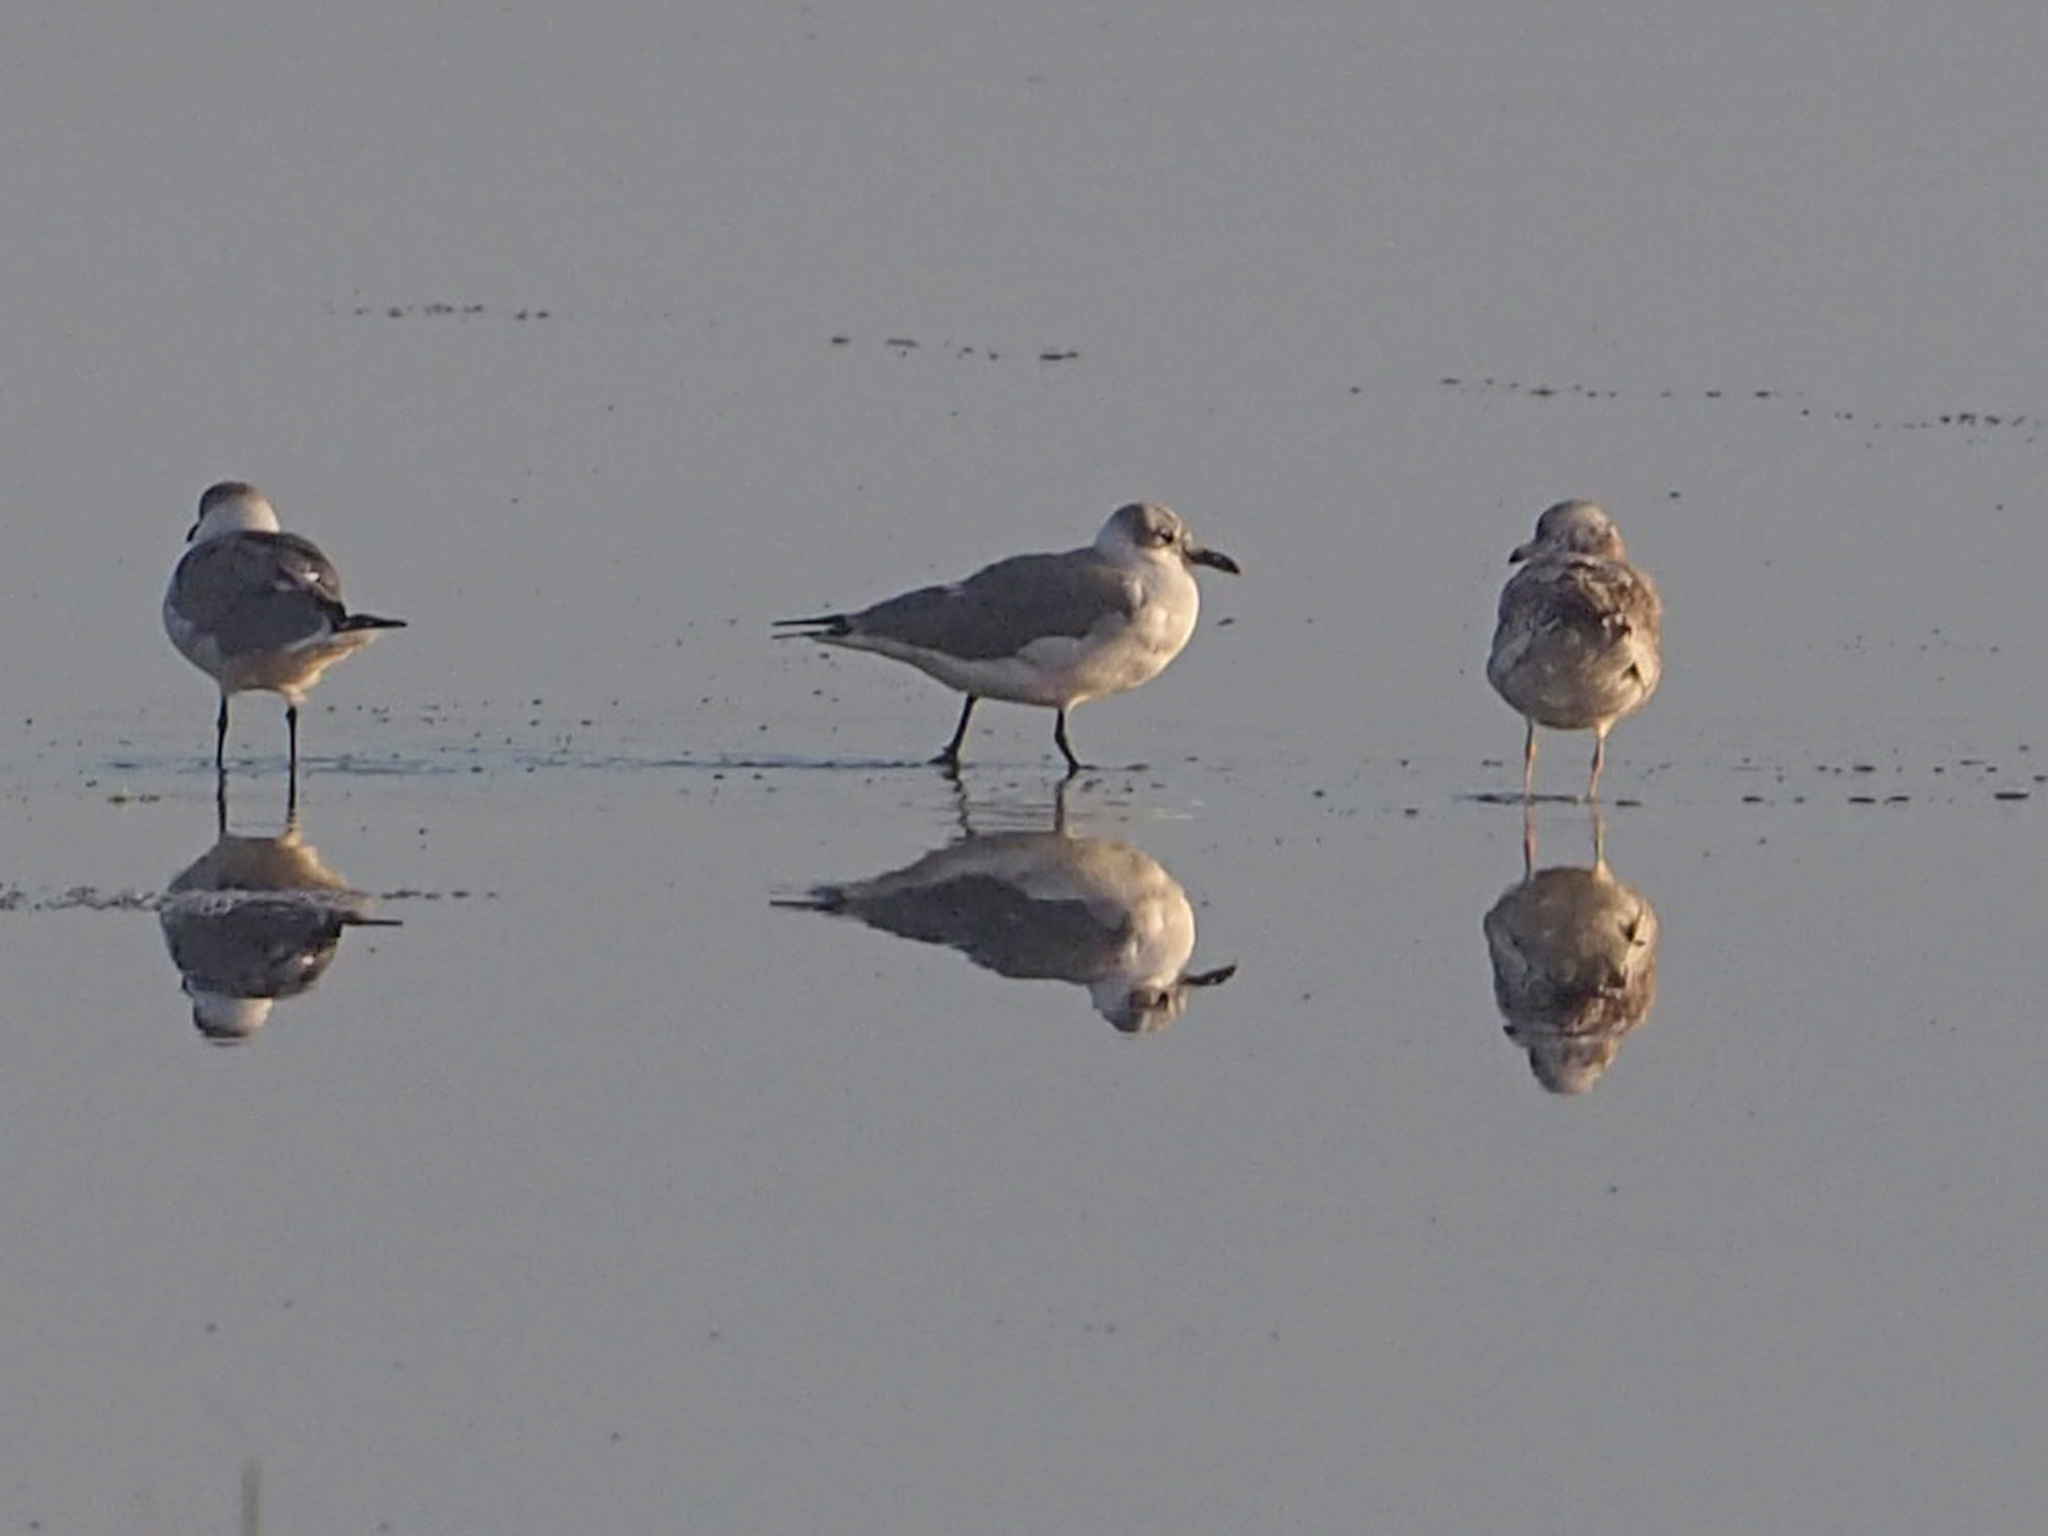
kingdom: Animalia
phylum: Chordata
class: Aves
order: Charadriiformes
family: Laridae
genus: Leucophaeus
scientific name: Leucophaeus atricilla
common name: Laughing gull
